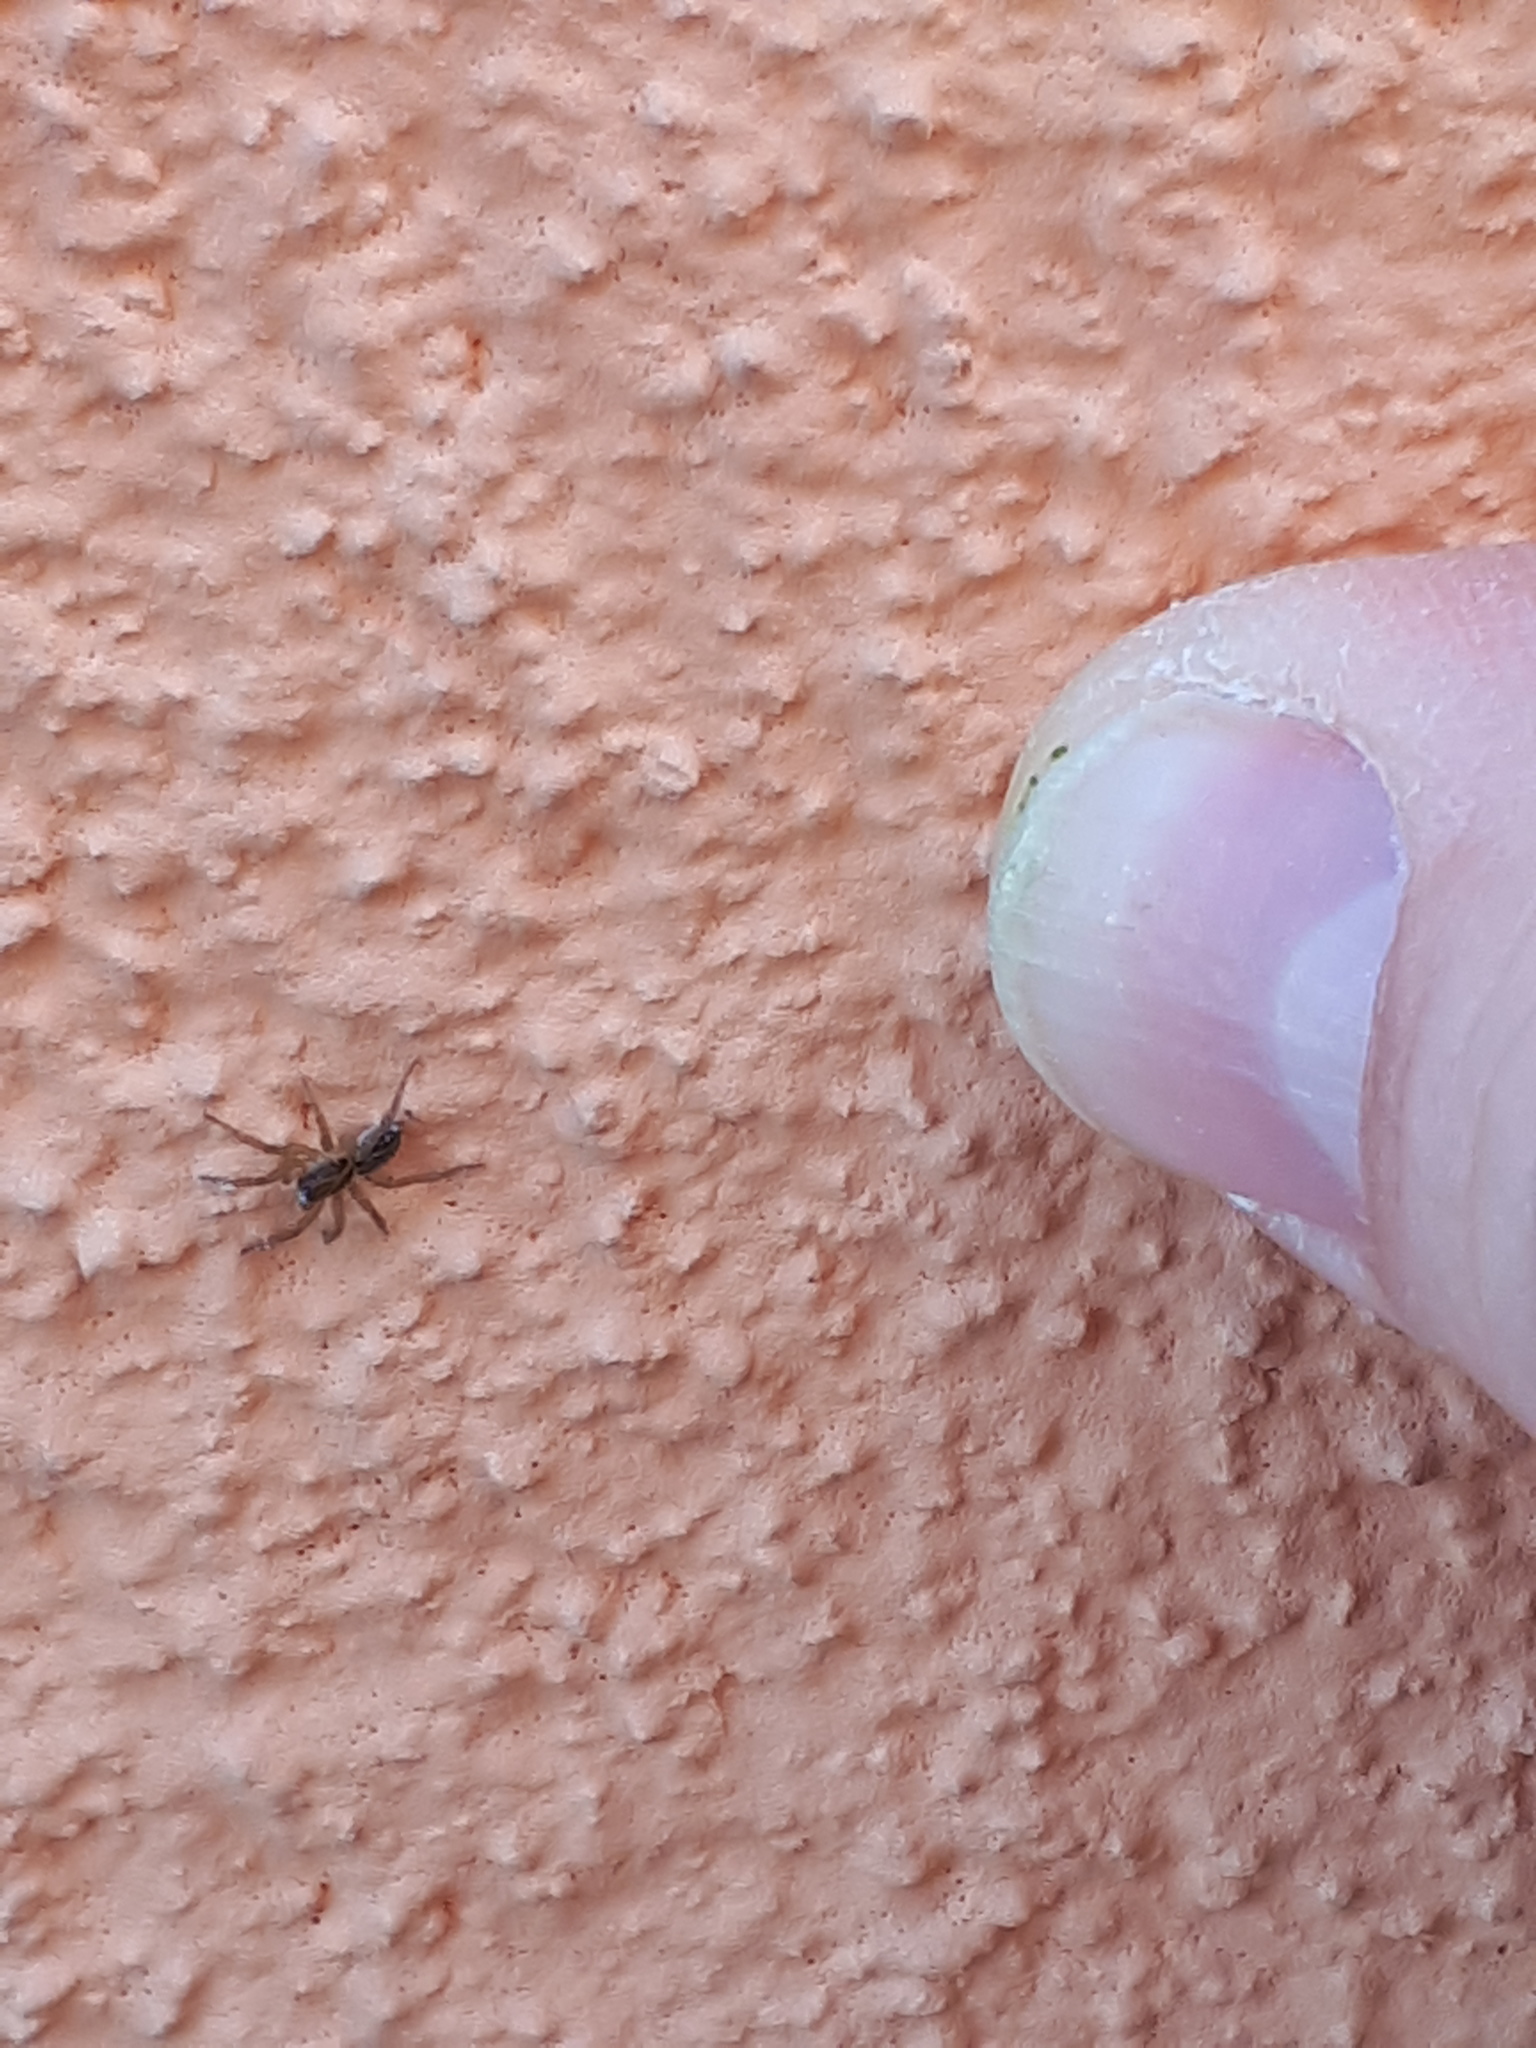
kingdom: Animalia
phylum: Arthropoda
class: Arachnida
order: Araneae
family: Lycosidae
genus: Pirata
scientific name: Pirata piraticus
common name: Pirate otter spider
